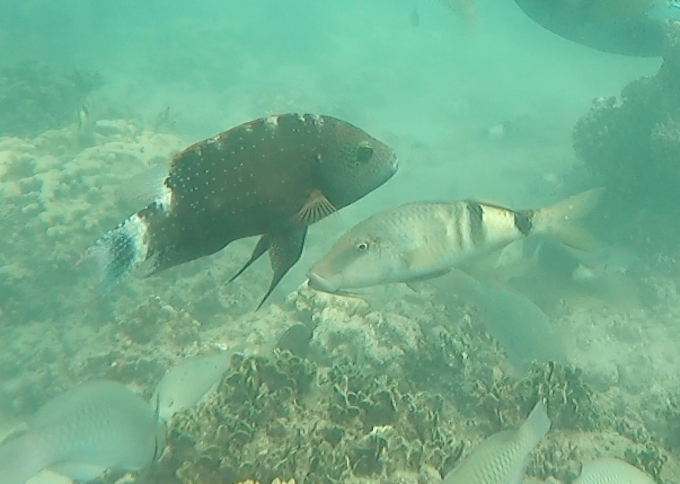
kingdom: Animalia
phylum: Chordata
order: Perciformes
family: Labridae
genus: Cheilinus
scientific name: Cheilinus chlorourus
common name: Floral wrasse
